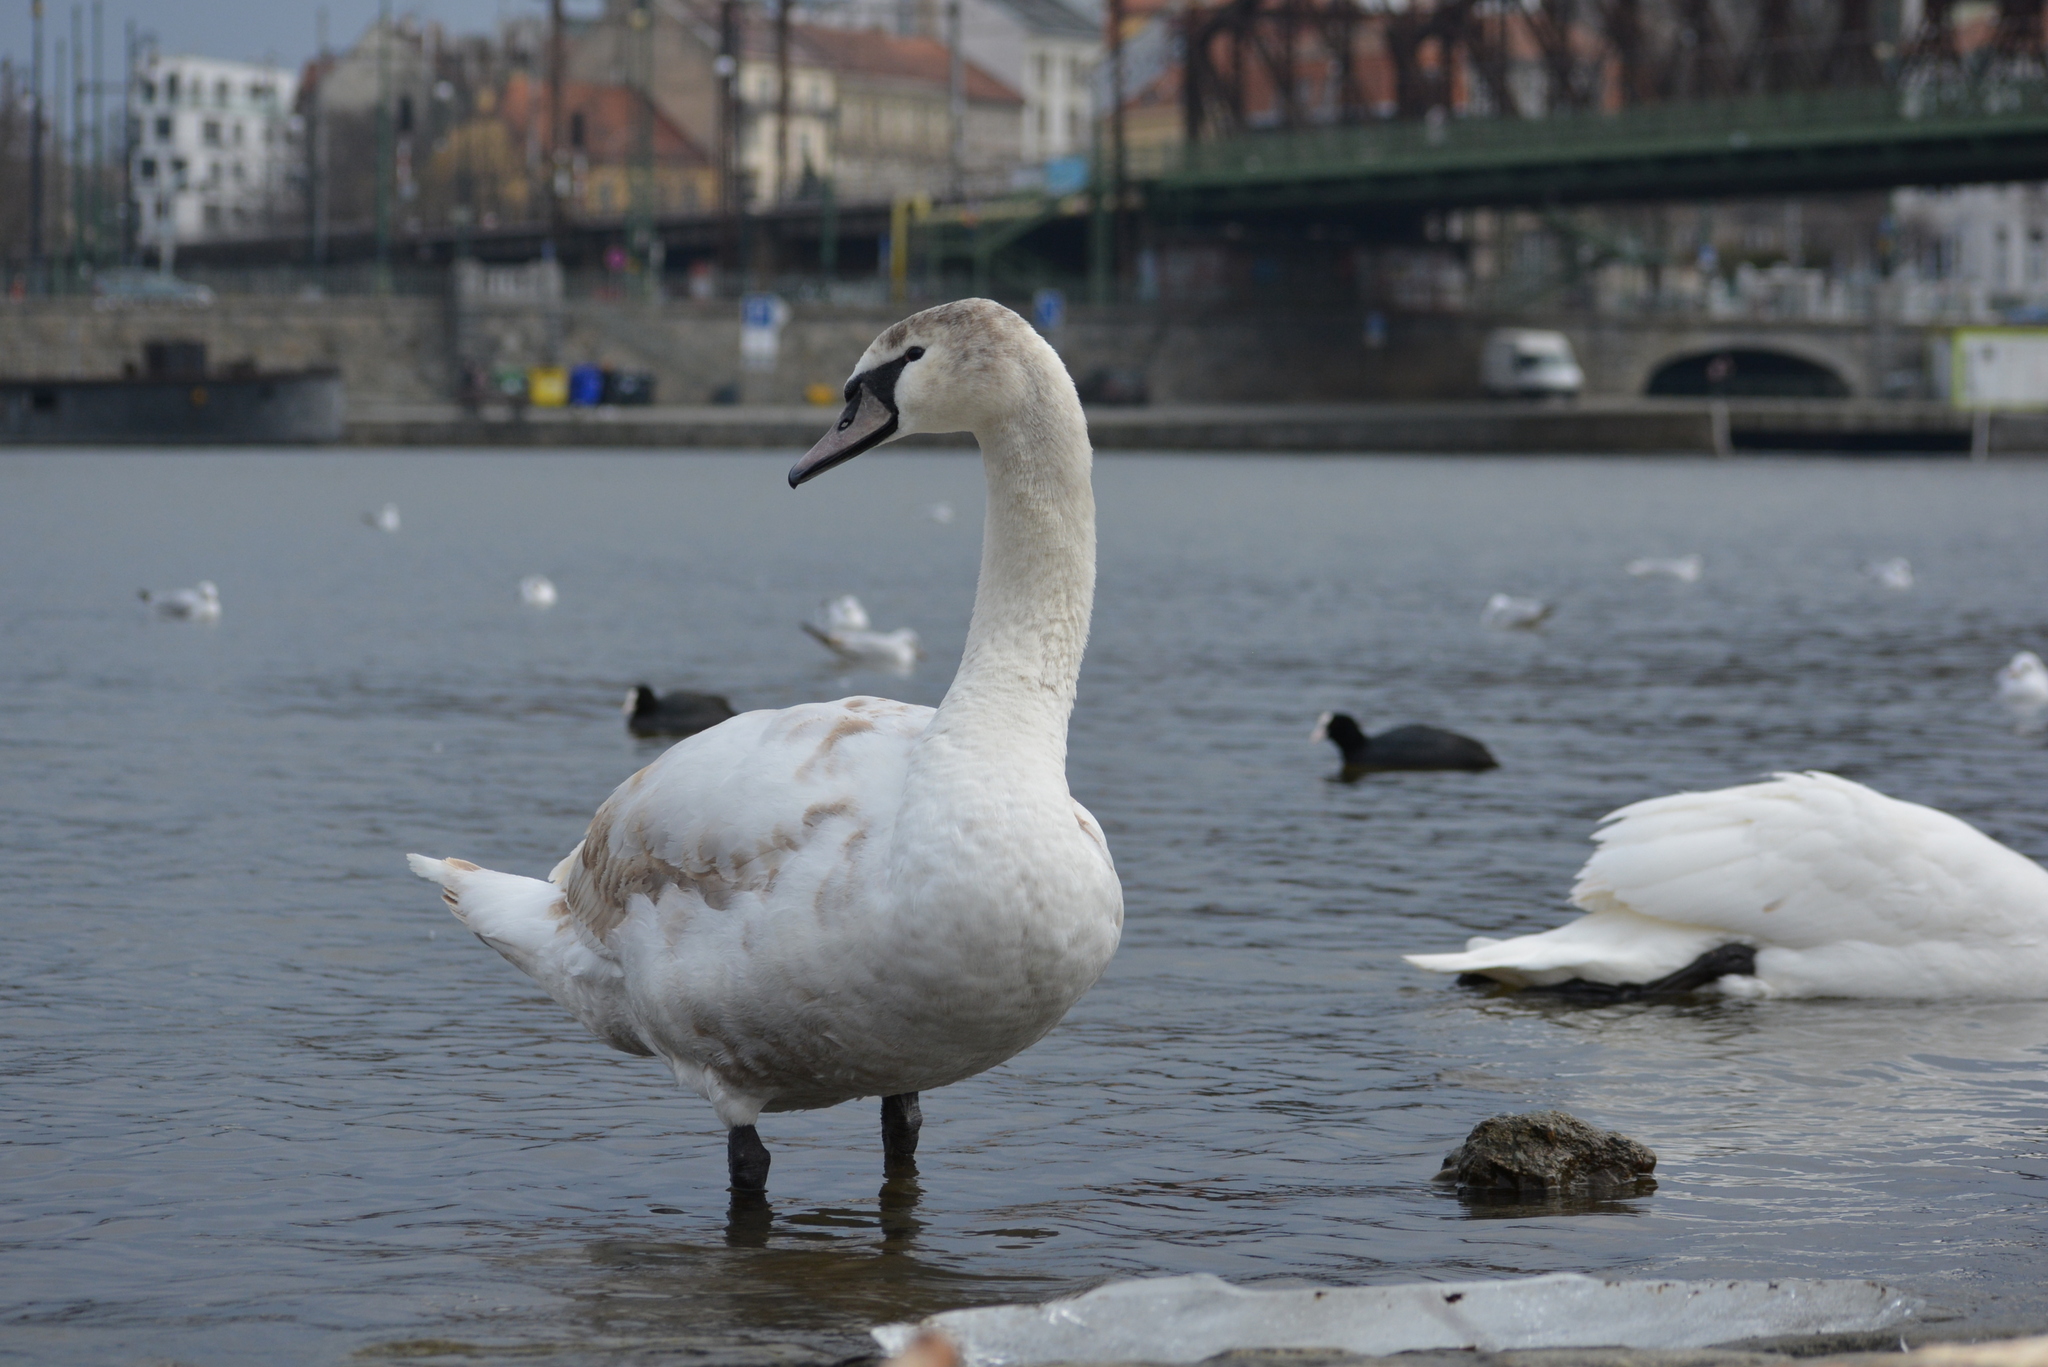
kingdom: Animalia
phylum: Chordata
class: Aves
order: Anseriformes
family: Anatidae
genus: Cygnus
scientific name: Cygnus olor
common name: Mute swan
